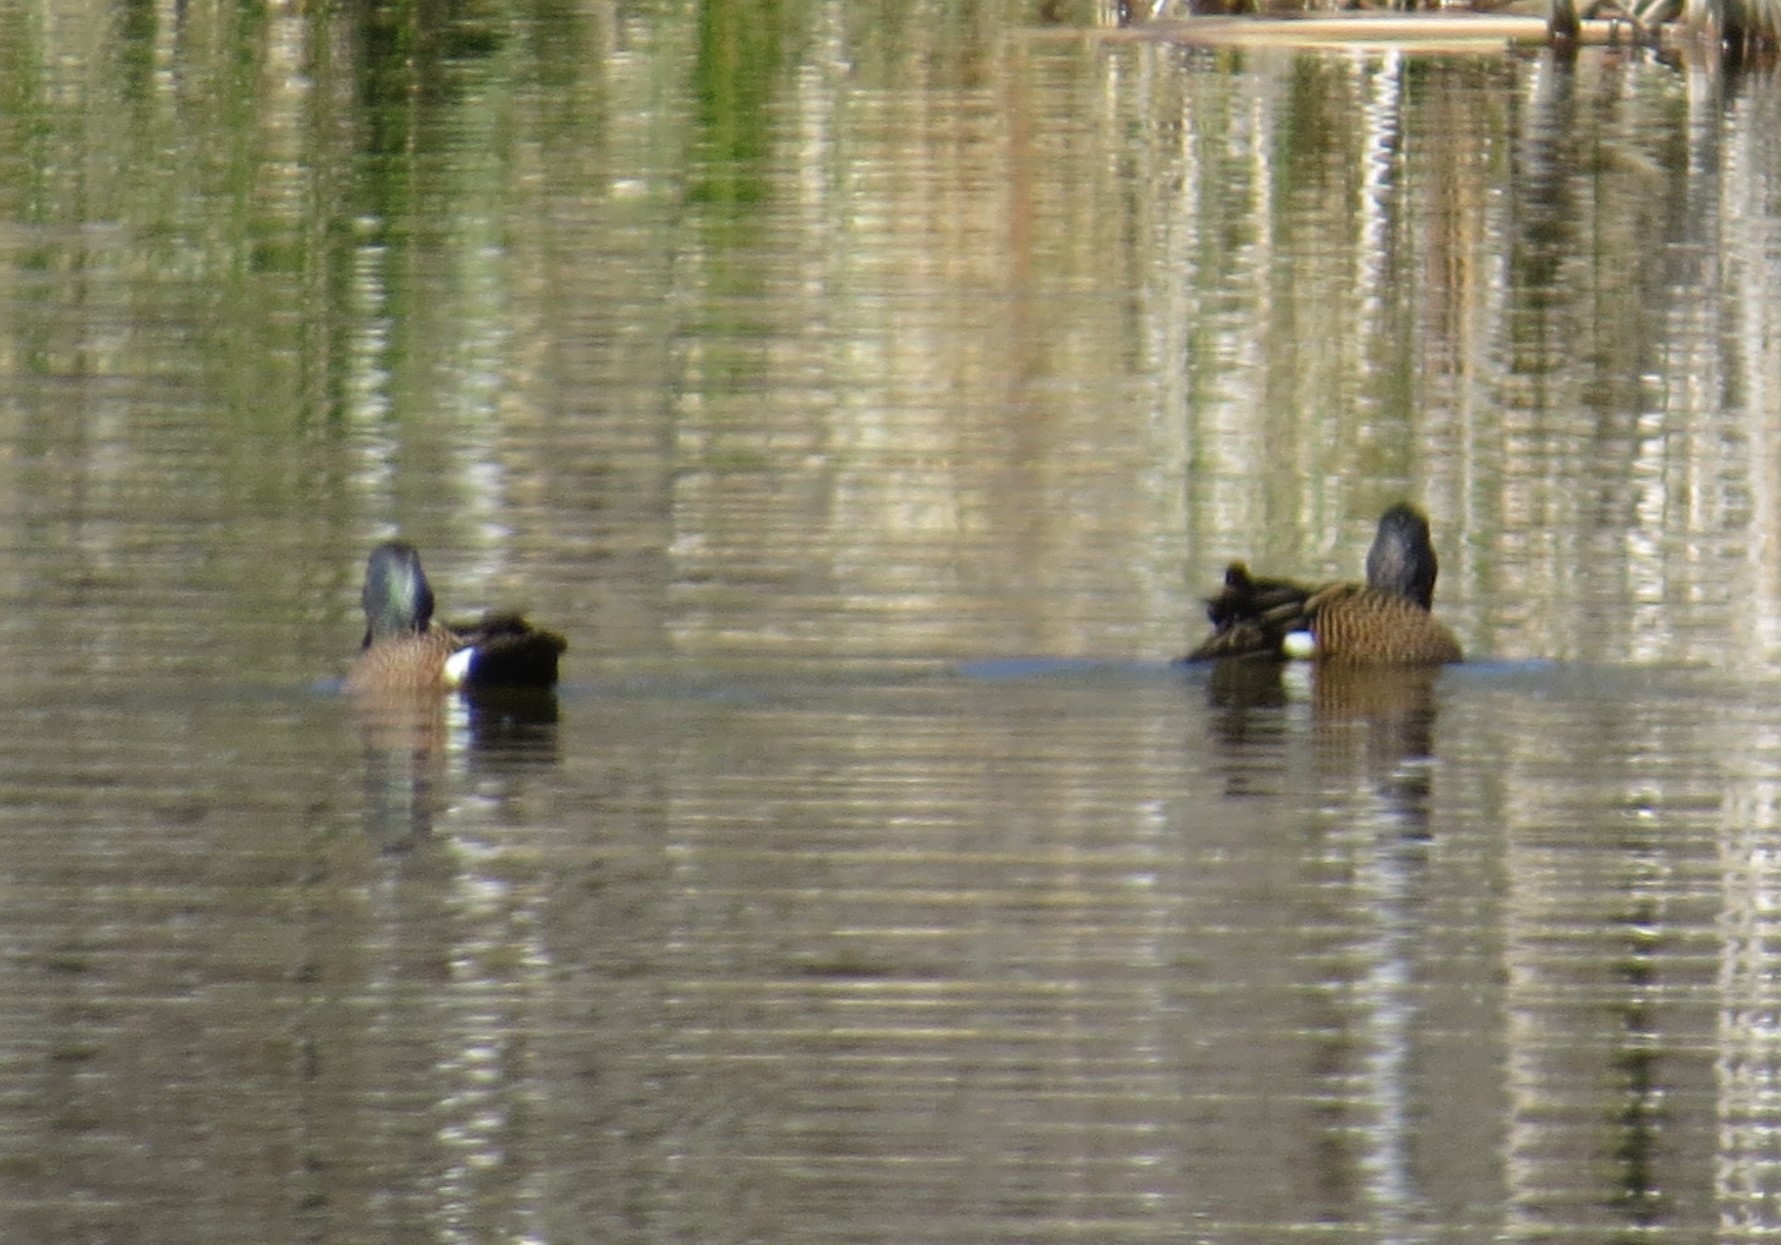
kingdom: Animalia
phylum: Chordata
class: Aves
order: Anseriformes
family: Anatidae
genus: Spatula
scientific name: Spatula discors
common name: Blue-winged teal
